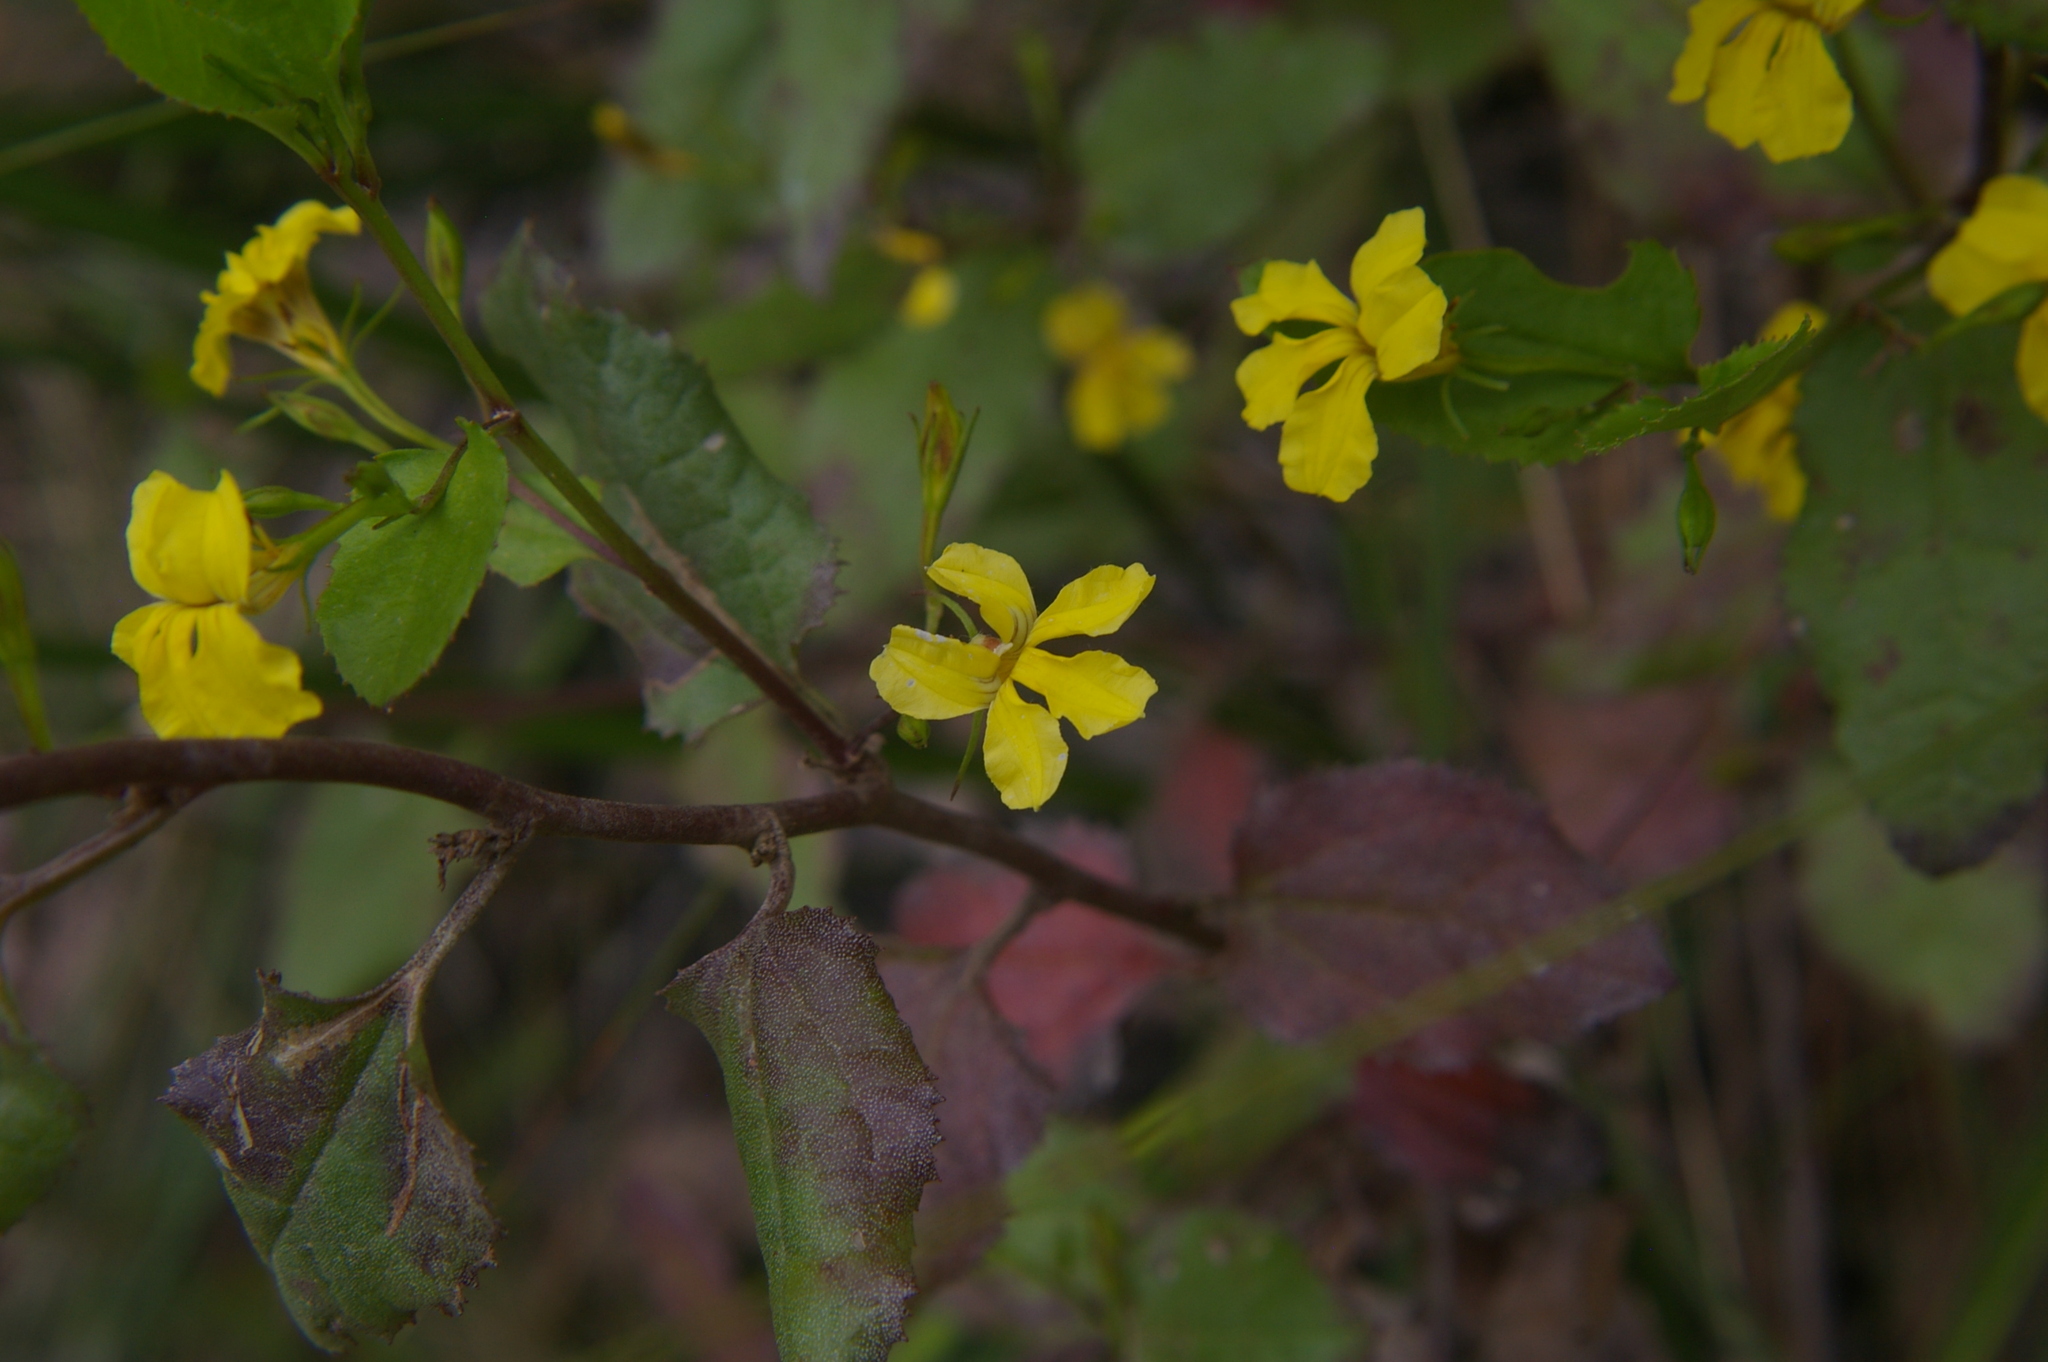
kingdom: Plantae
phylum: Tracheophyta
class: Magnoliopsida
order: Asterales
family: Goodeniaceae
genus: Goodenia
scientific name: Goodenia ovata
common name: Hop goodenia
